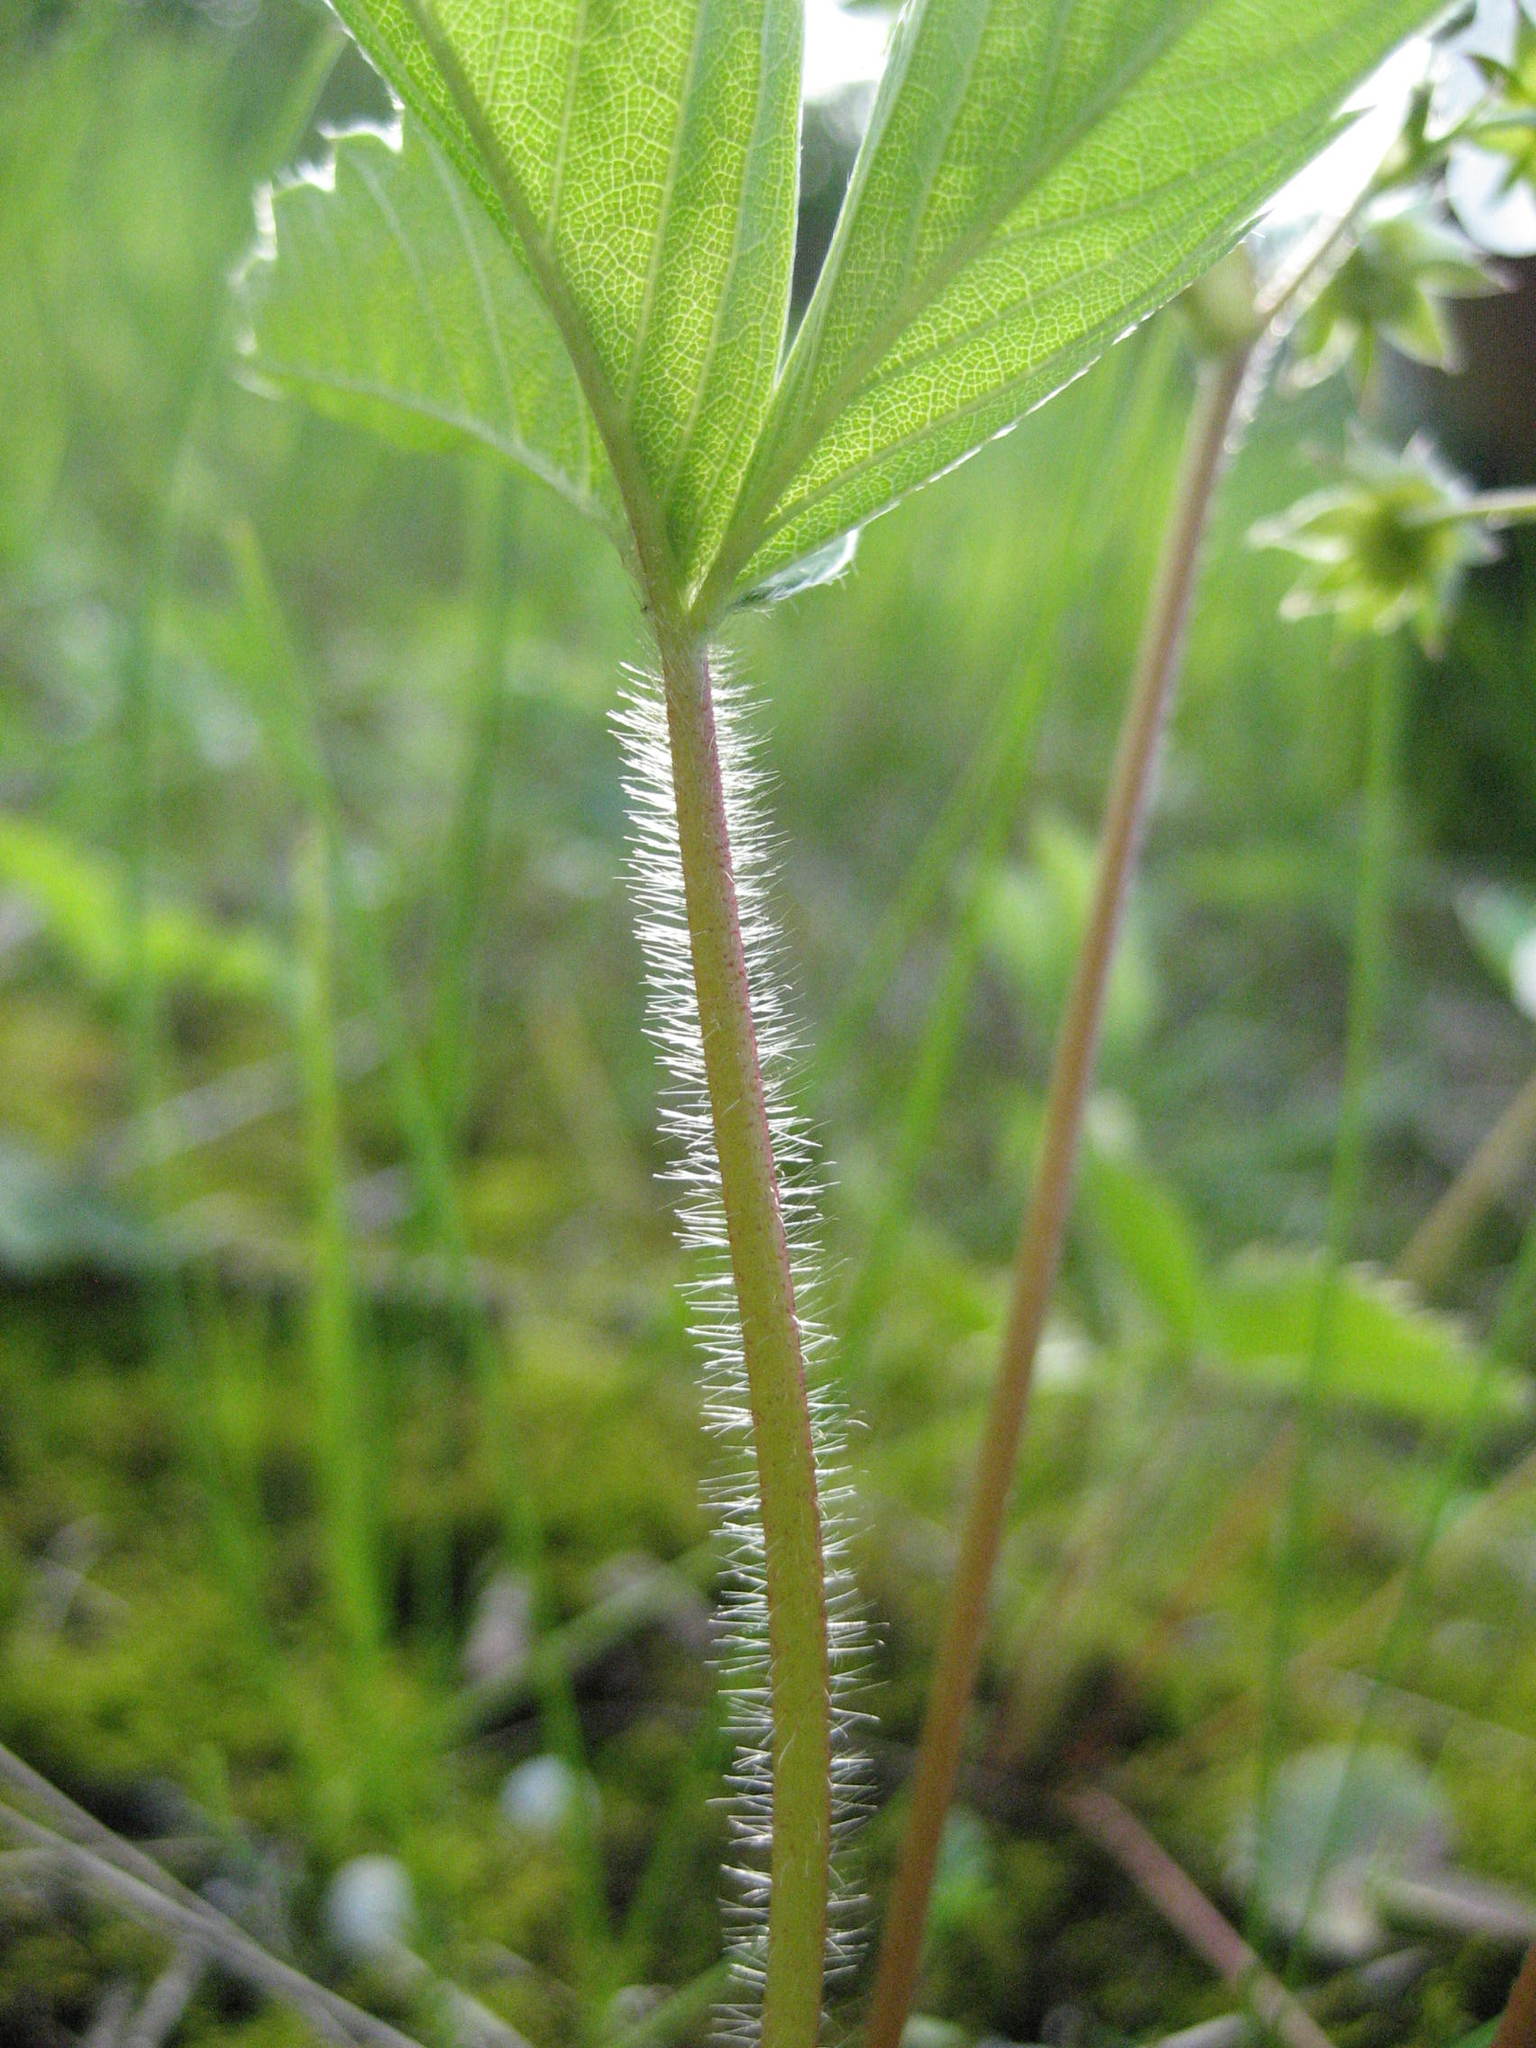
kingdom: Plantae
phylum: Tracheophyta
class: Magnoliopsida
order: Rosales
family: Rosaceae
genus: Fragaria
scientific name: Fragaria virginiana
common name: Thickleaved wild strawberry
